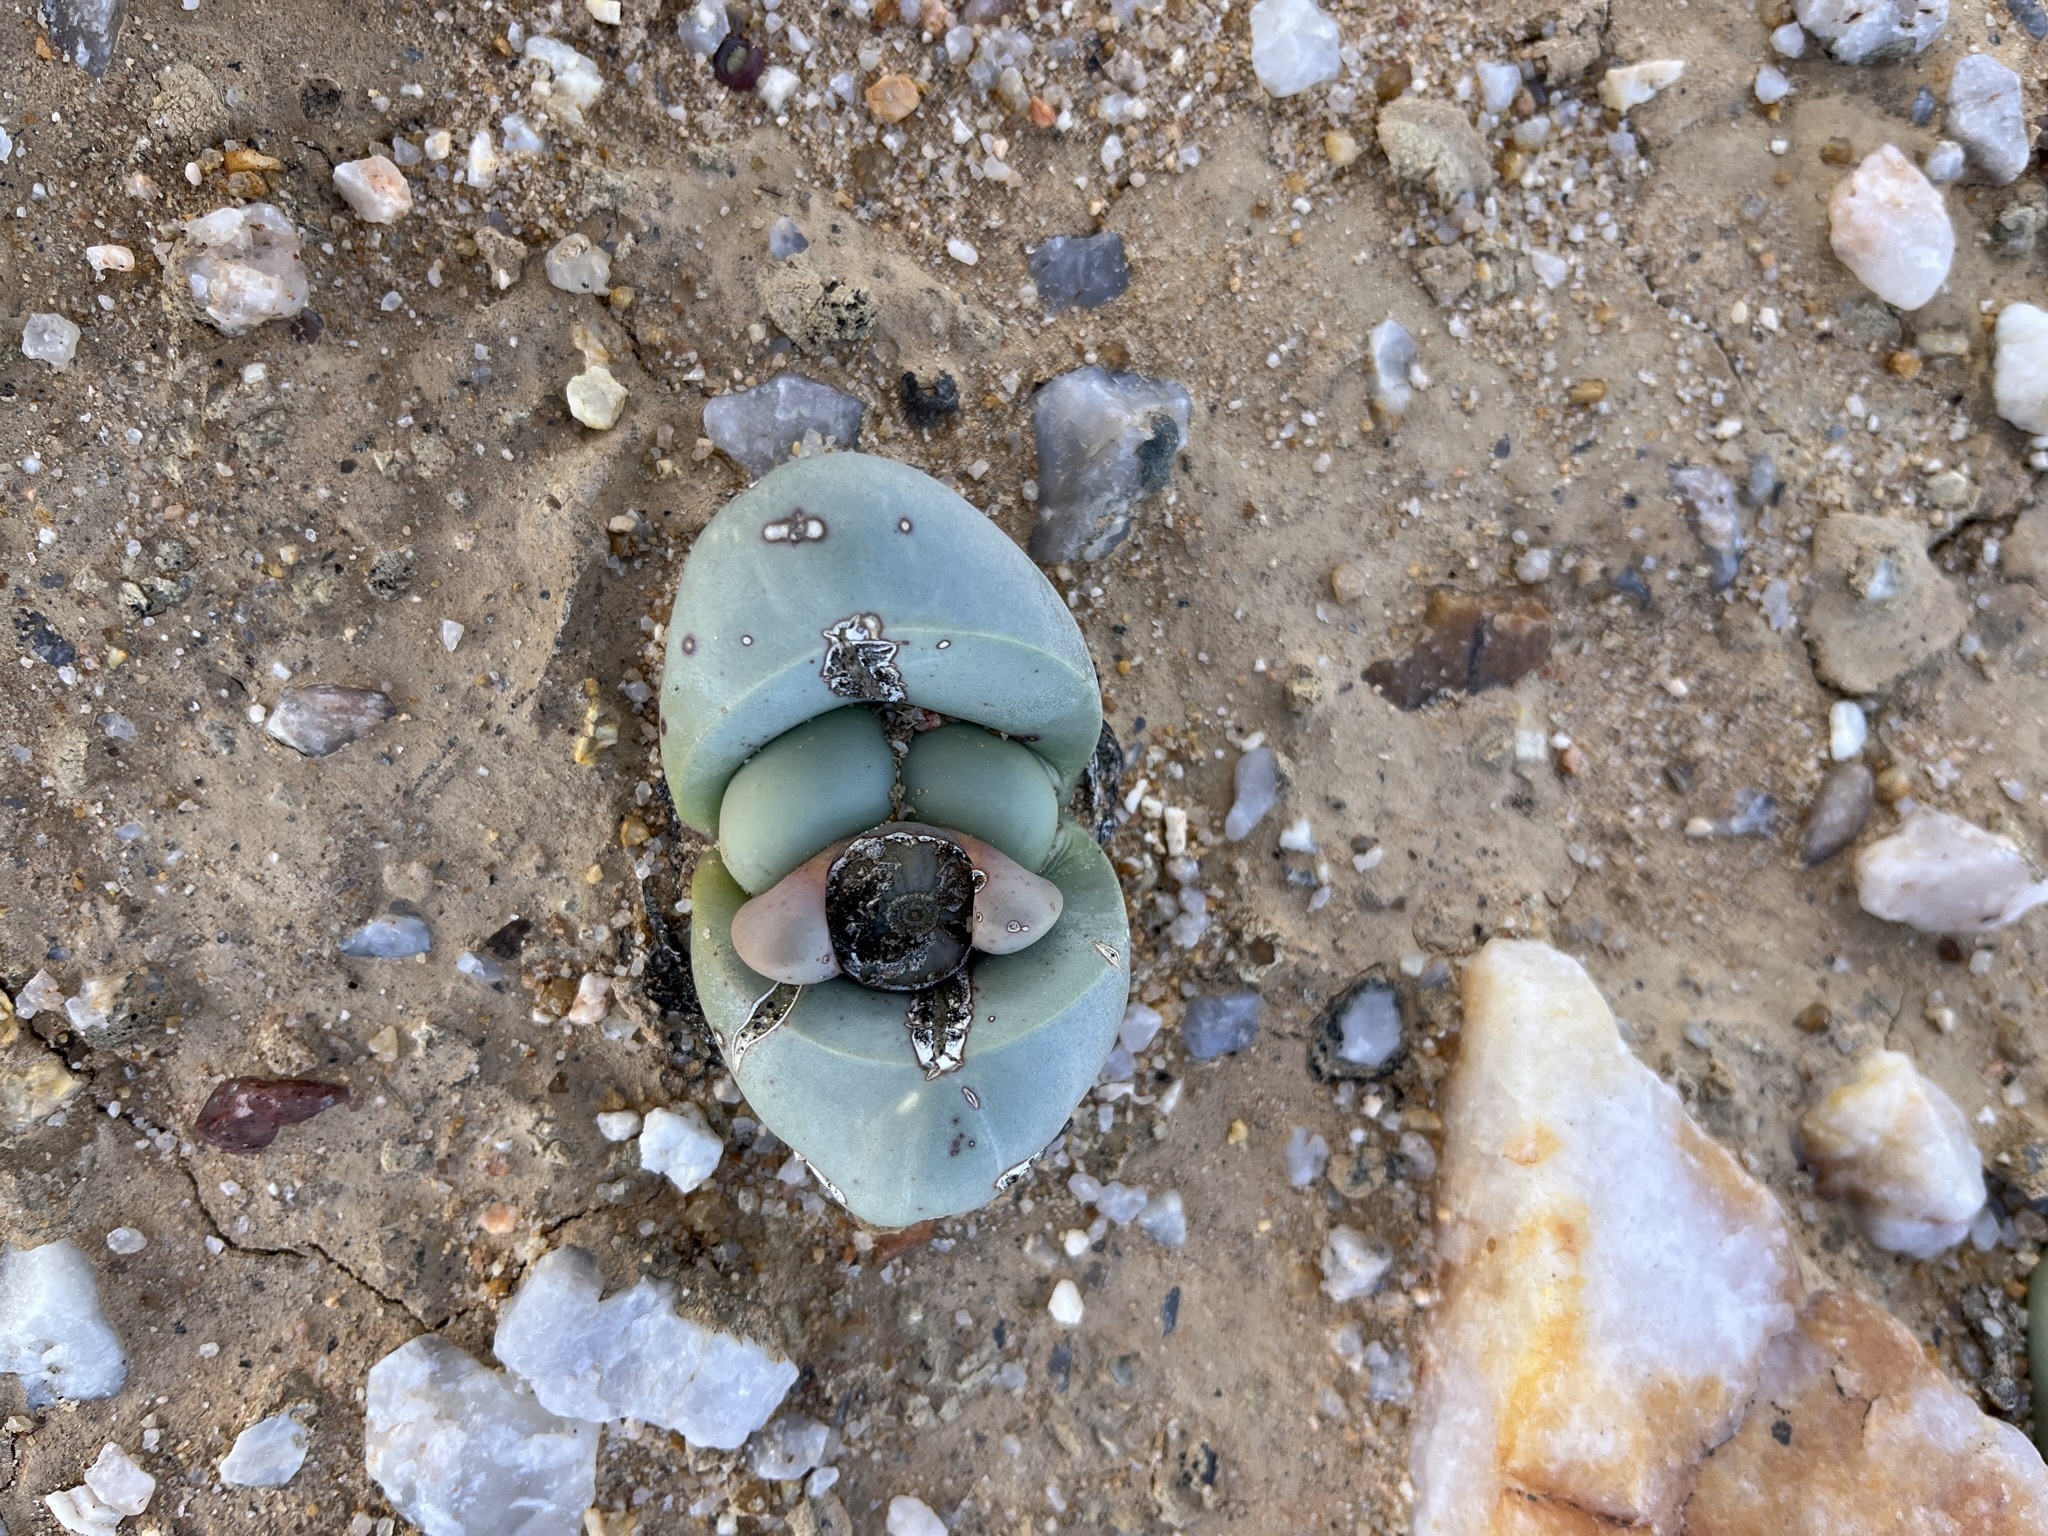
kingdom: Plantae
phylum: Tracheophyta
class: Magnoliopsida
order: Caryophyllales
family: Aizoaceae
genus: Argyroderma
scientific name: Argyroderma crateriforme
